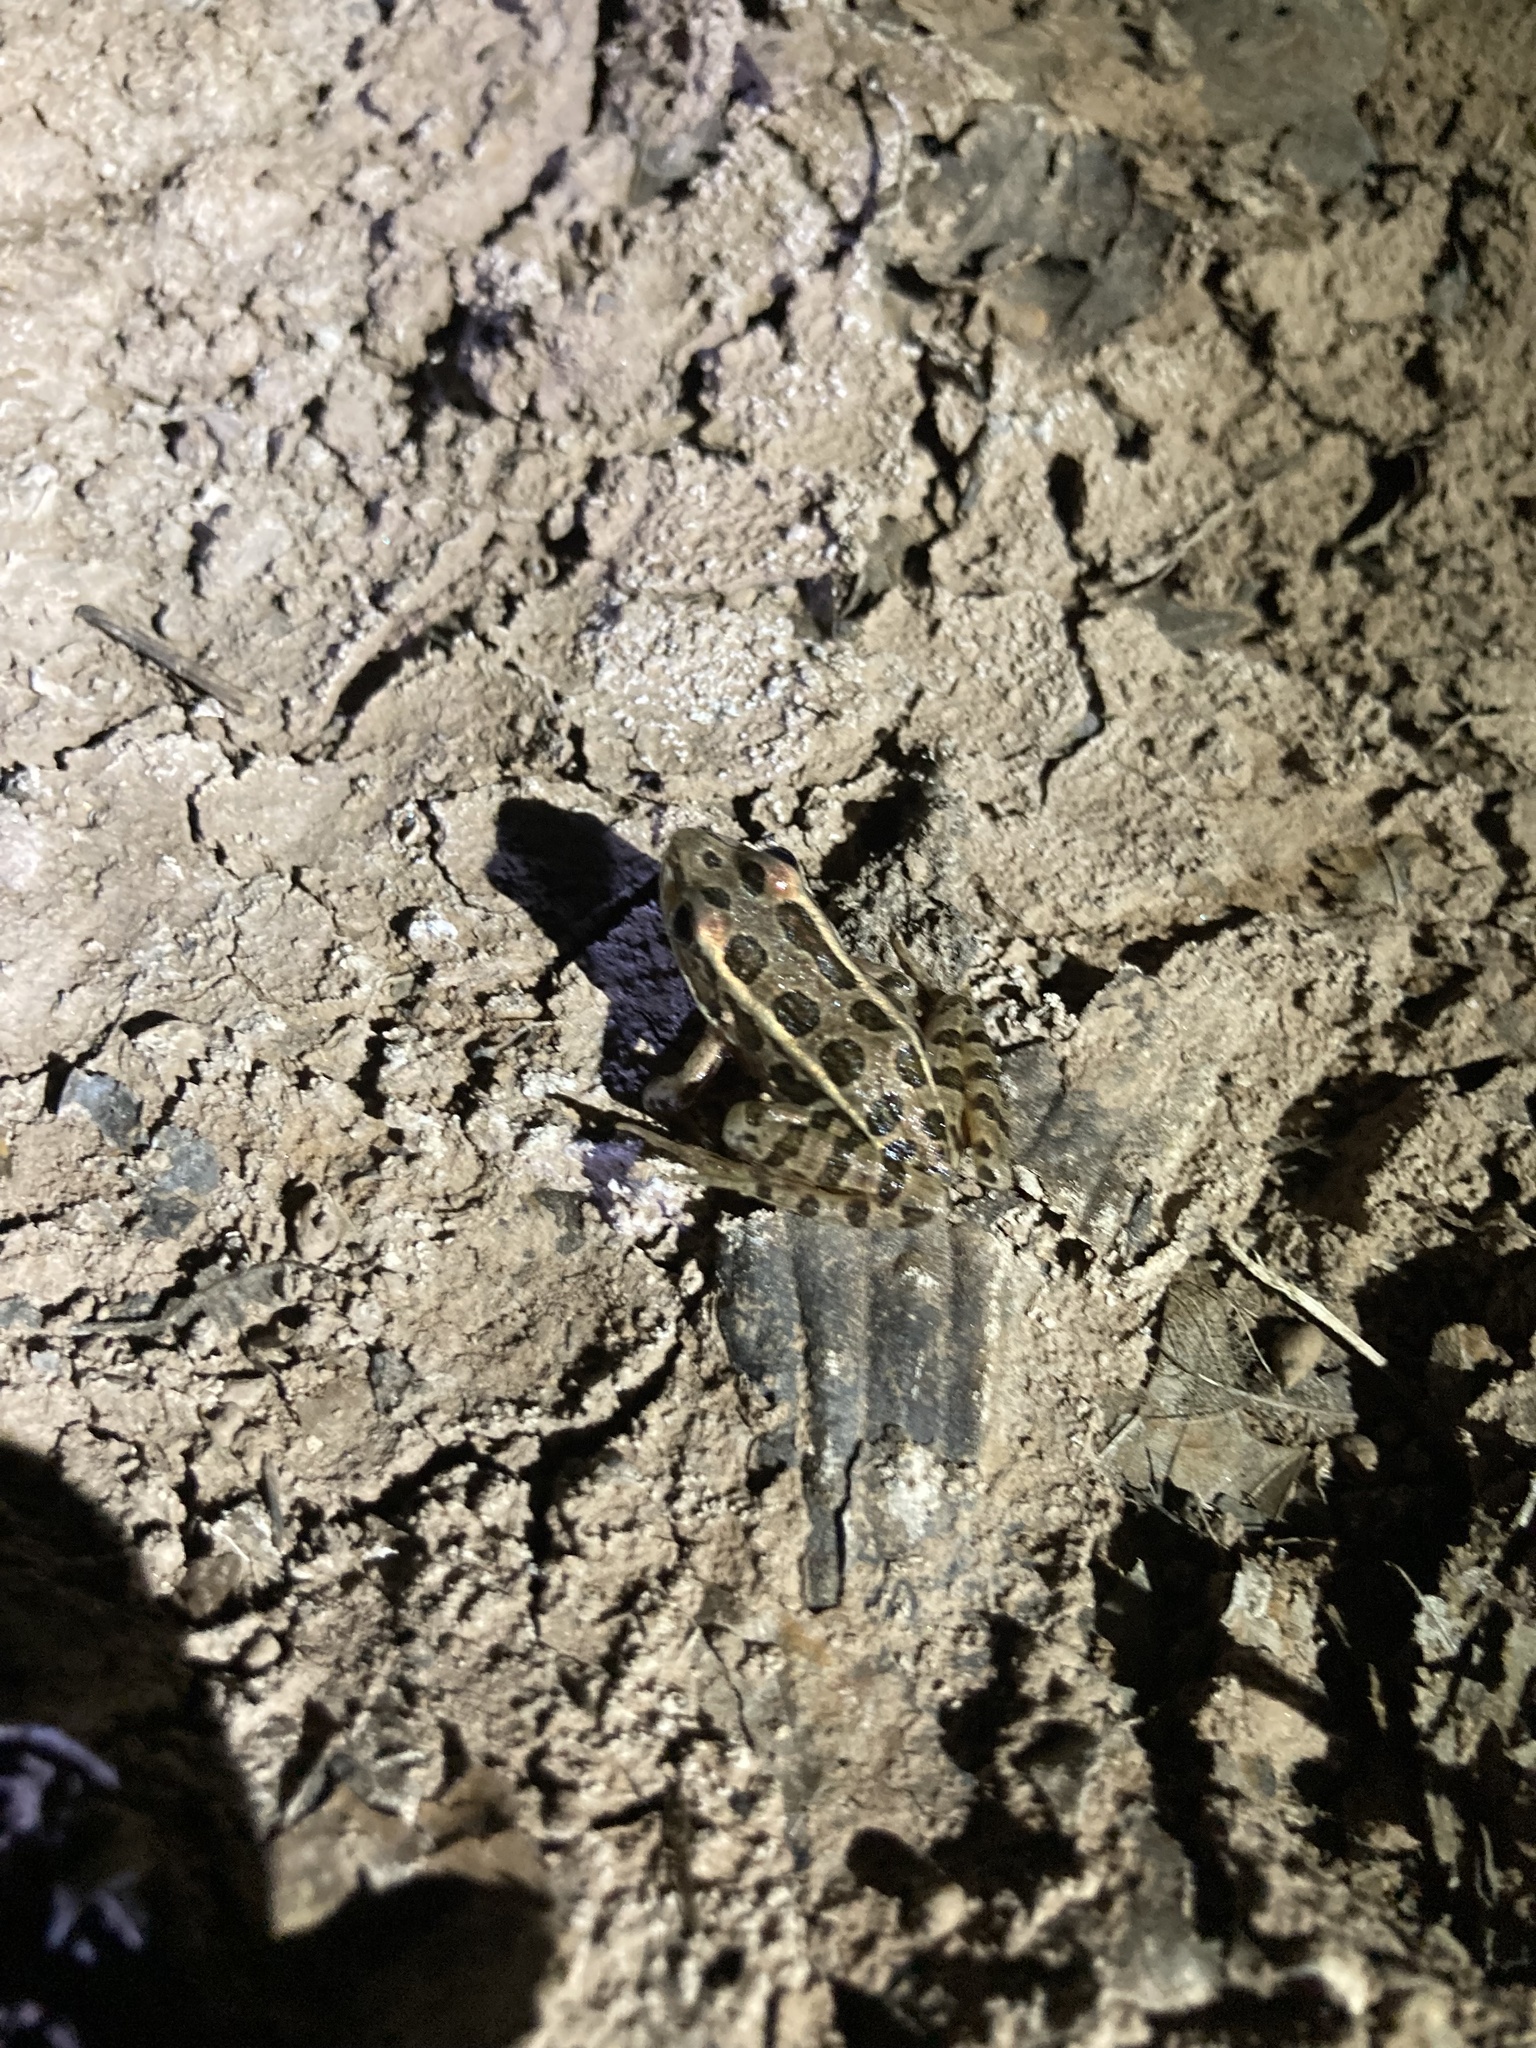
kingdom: Animalia
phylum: Chordata
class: Amphibia
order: Anura
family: Ranidae
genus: Lithobates
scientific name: Lithobates palustris
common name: Pickerel frog
